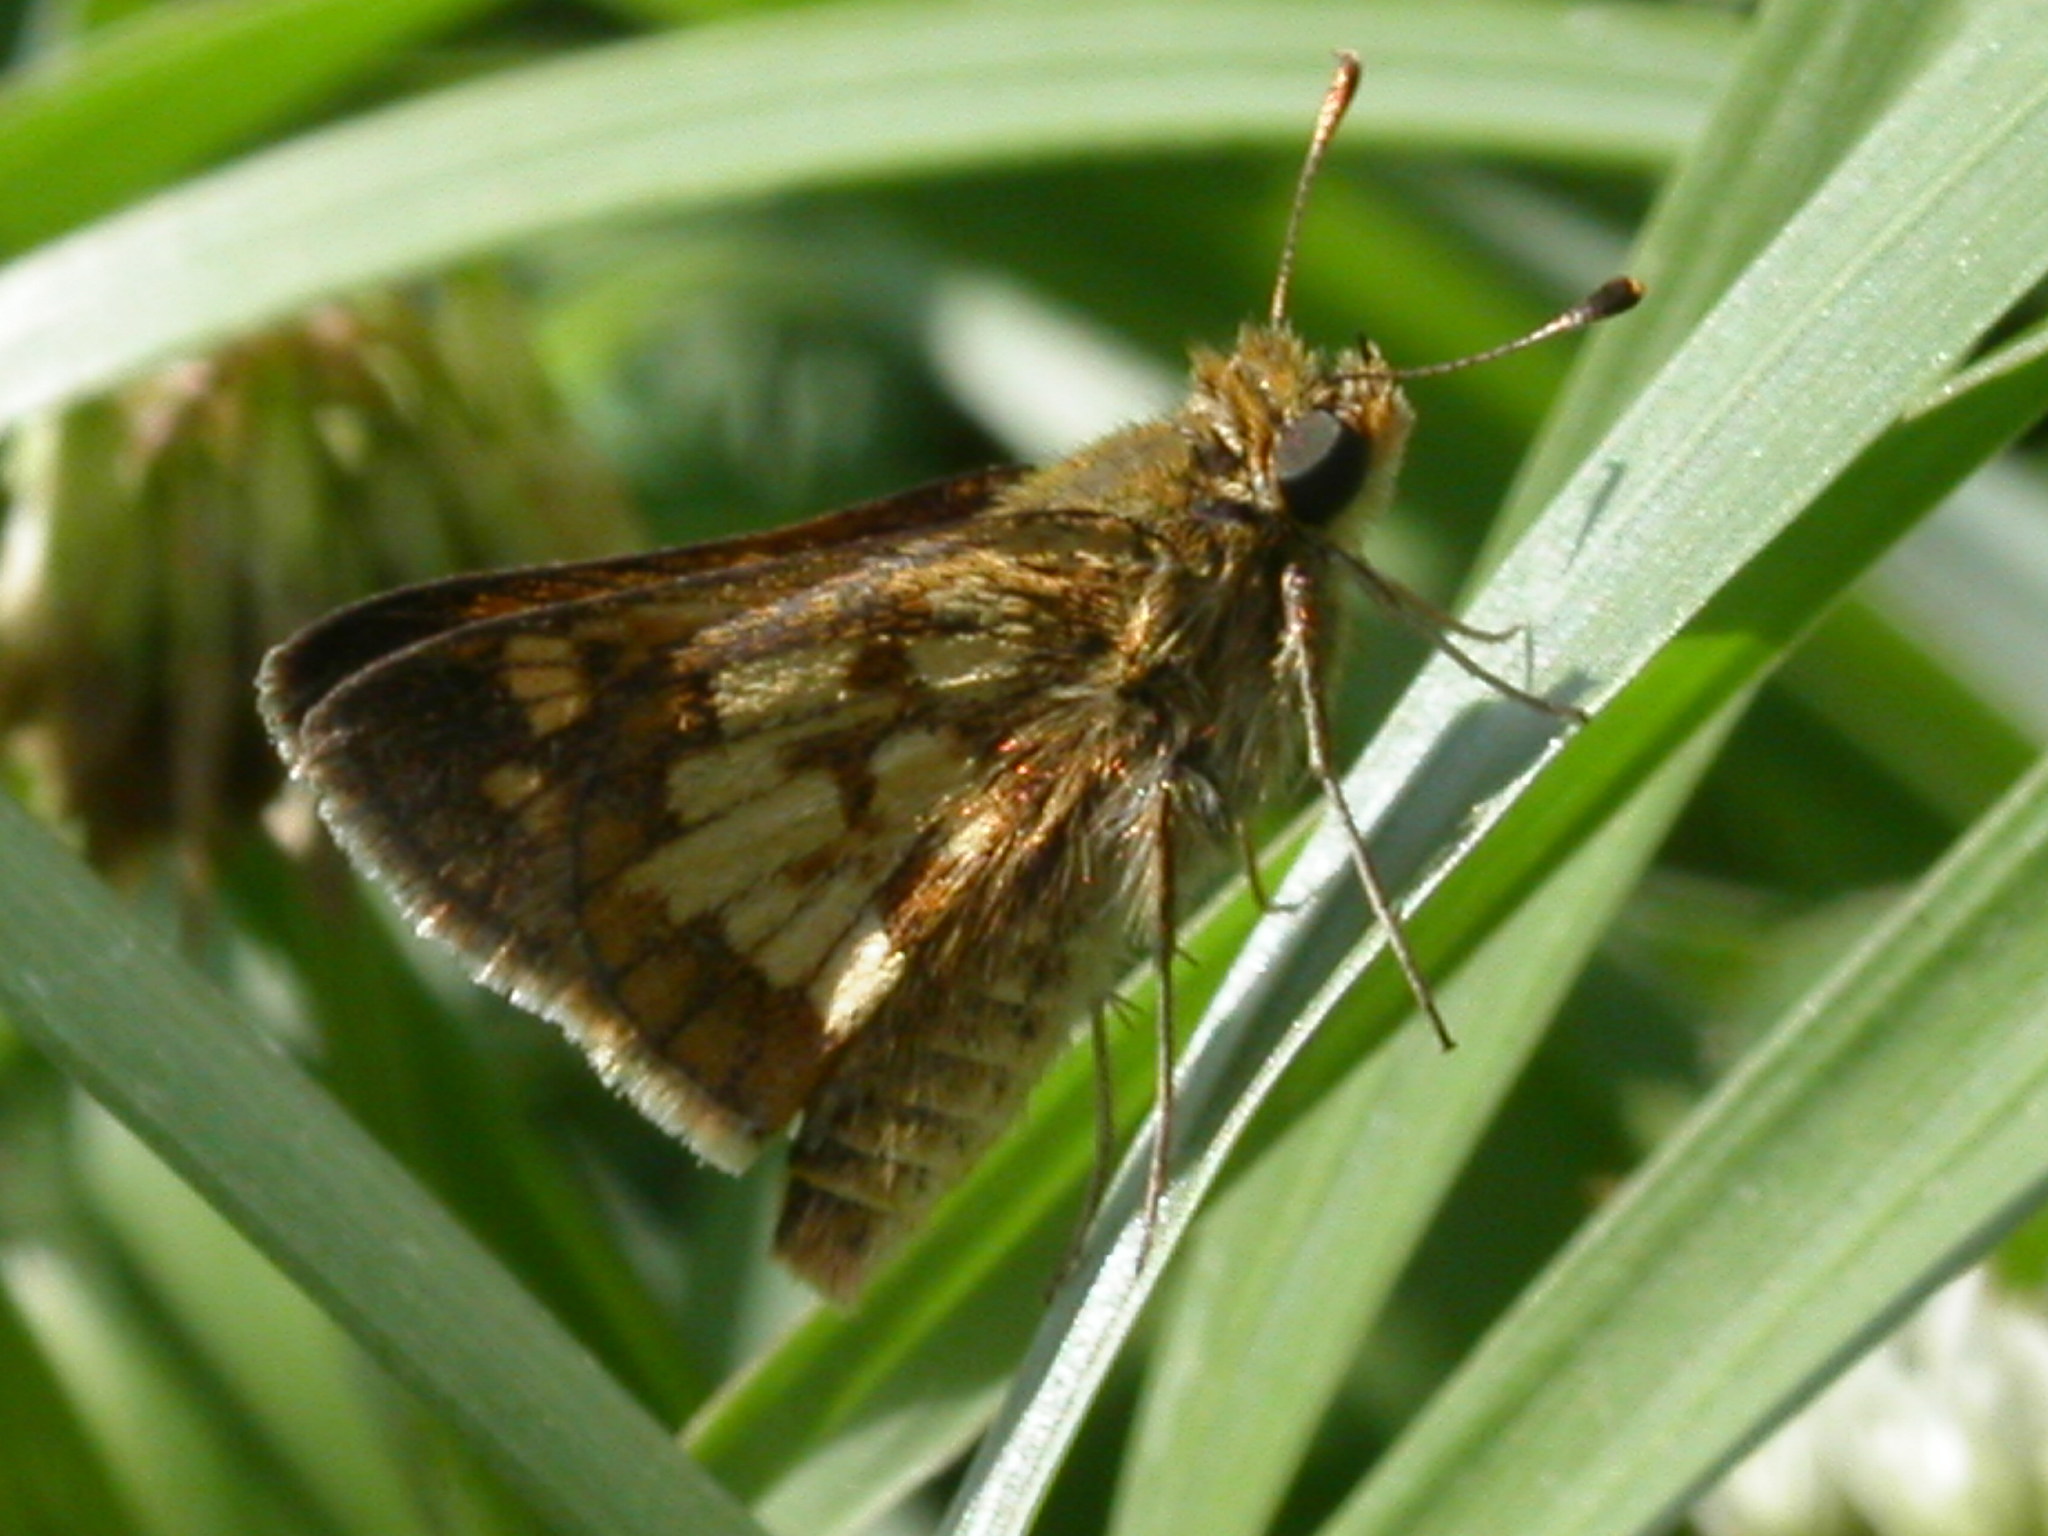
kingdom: Animalia
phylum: Arthropoda
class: Insecta
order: Lepidoptera
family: Hesperiidae
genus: Polites
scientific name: Polites coras
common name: Peck's skipper
